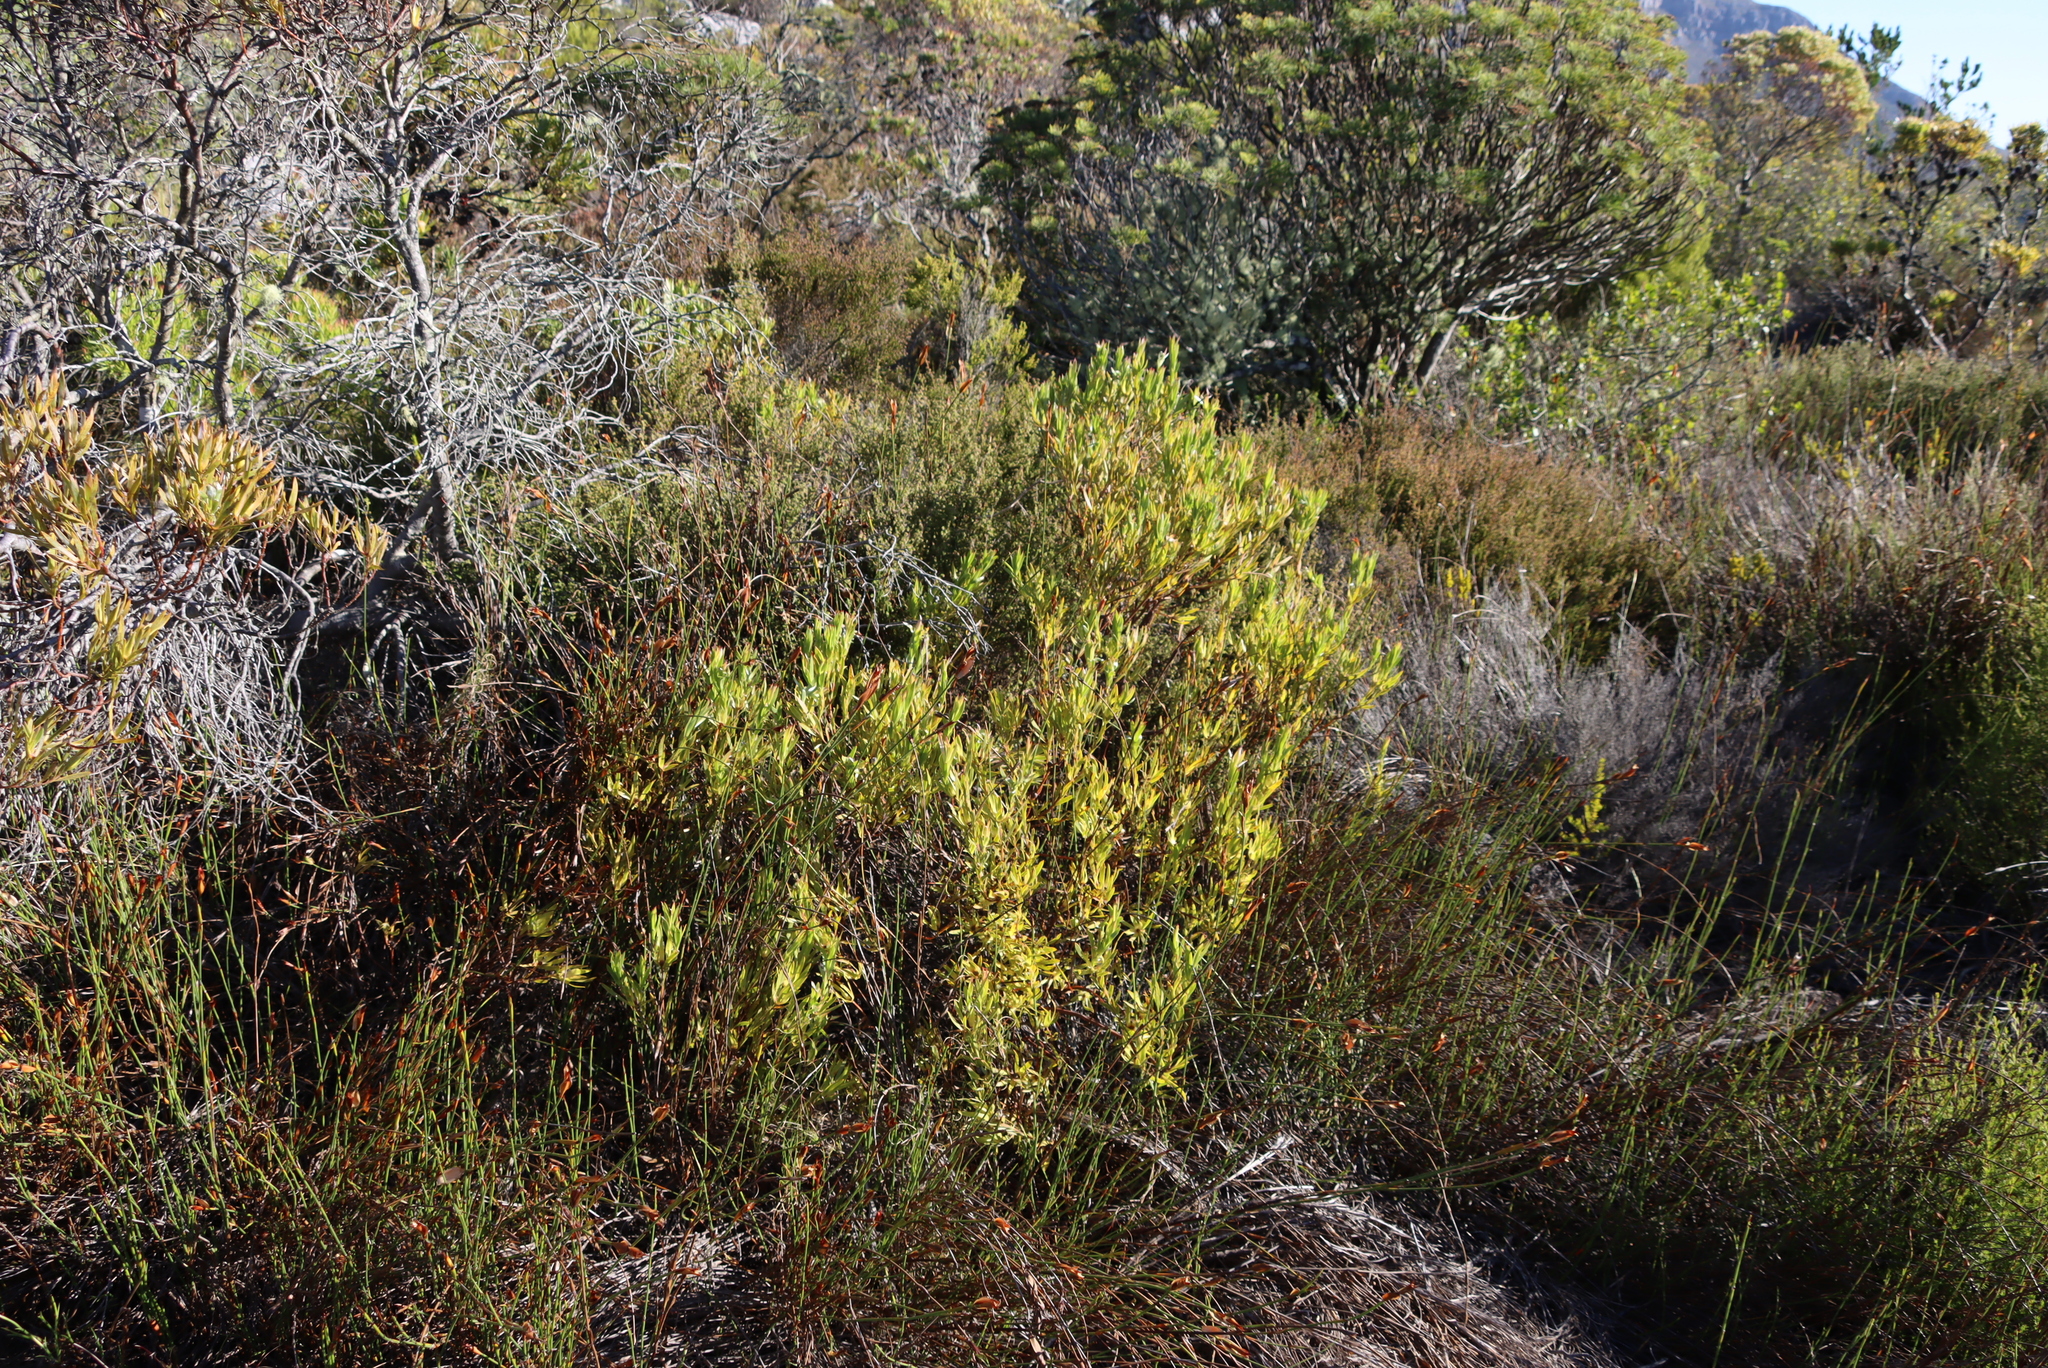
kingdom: Plantae
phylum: Tracheophyta
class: Magnoliopsida
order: Proteales
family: Proteaceae
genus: Leucadendron
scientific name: Leucadendron salignum
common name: Common sunshine conebush
